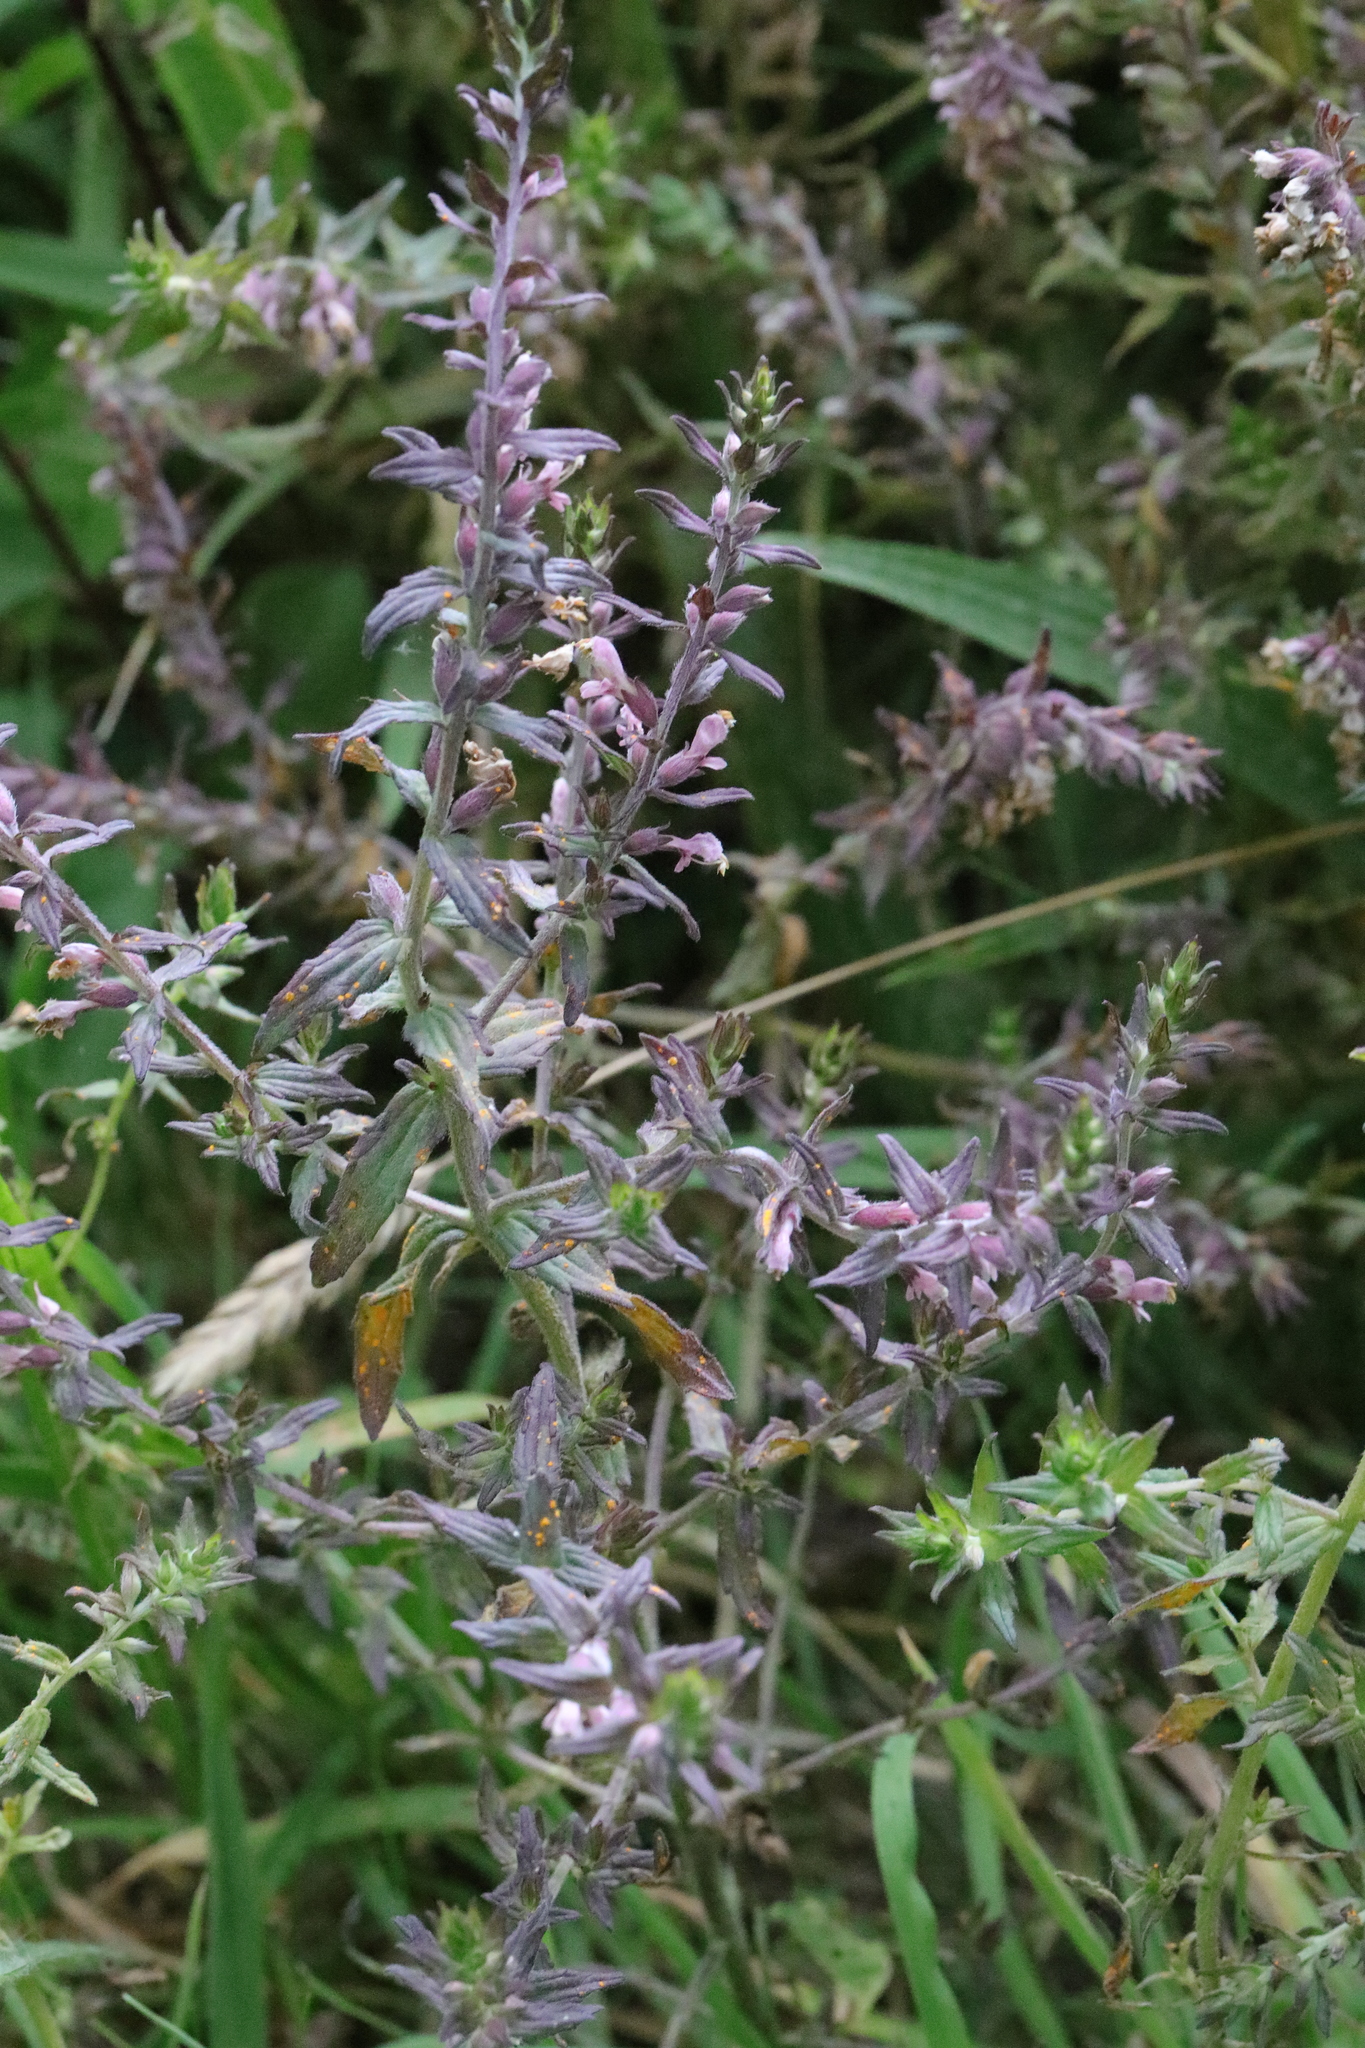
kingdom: Plantae
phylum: Tracheophyta
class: Magnoliopsida
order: Lamiales
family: Orobanchaceae
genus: Odontites
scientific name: Odontites vulgaris
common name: Broomrape
